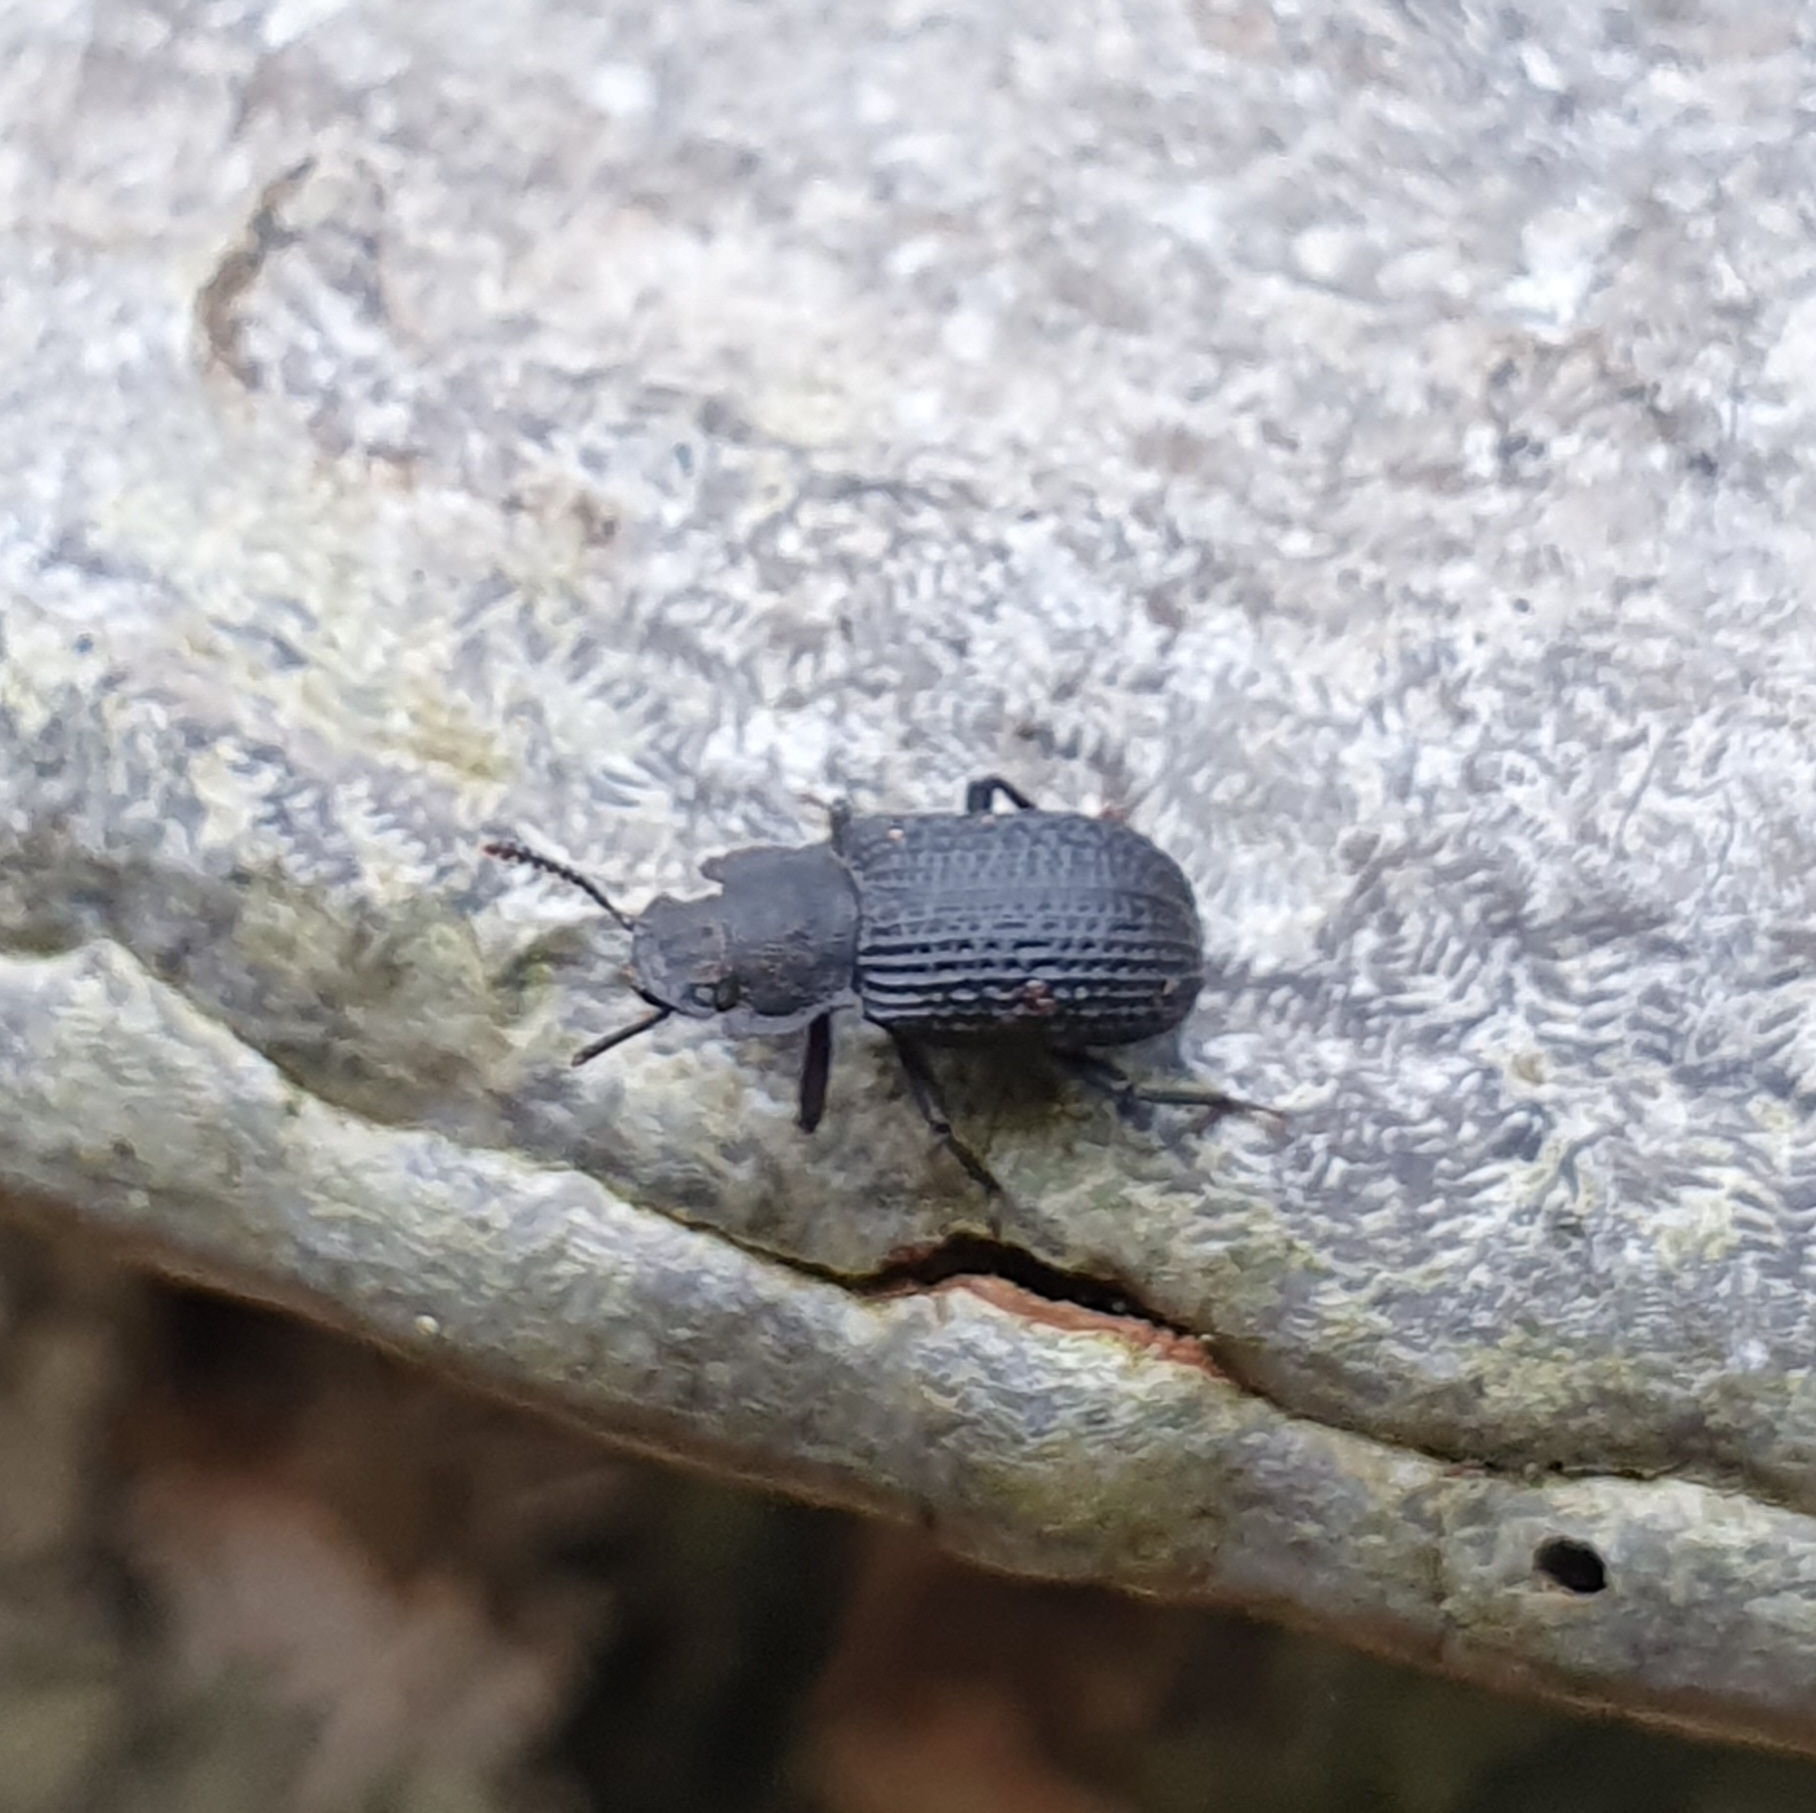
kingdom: Animalia
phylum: Arthropoda
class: Insecta
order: Coleoptera
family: Tenebrionidae
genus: Bolitophagus
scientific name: Bolitophagus reticulatus
